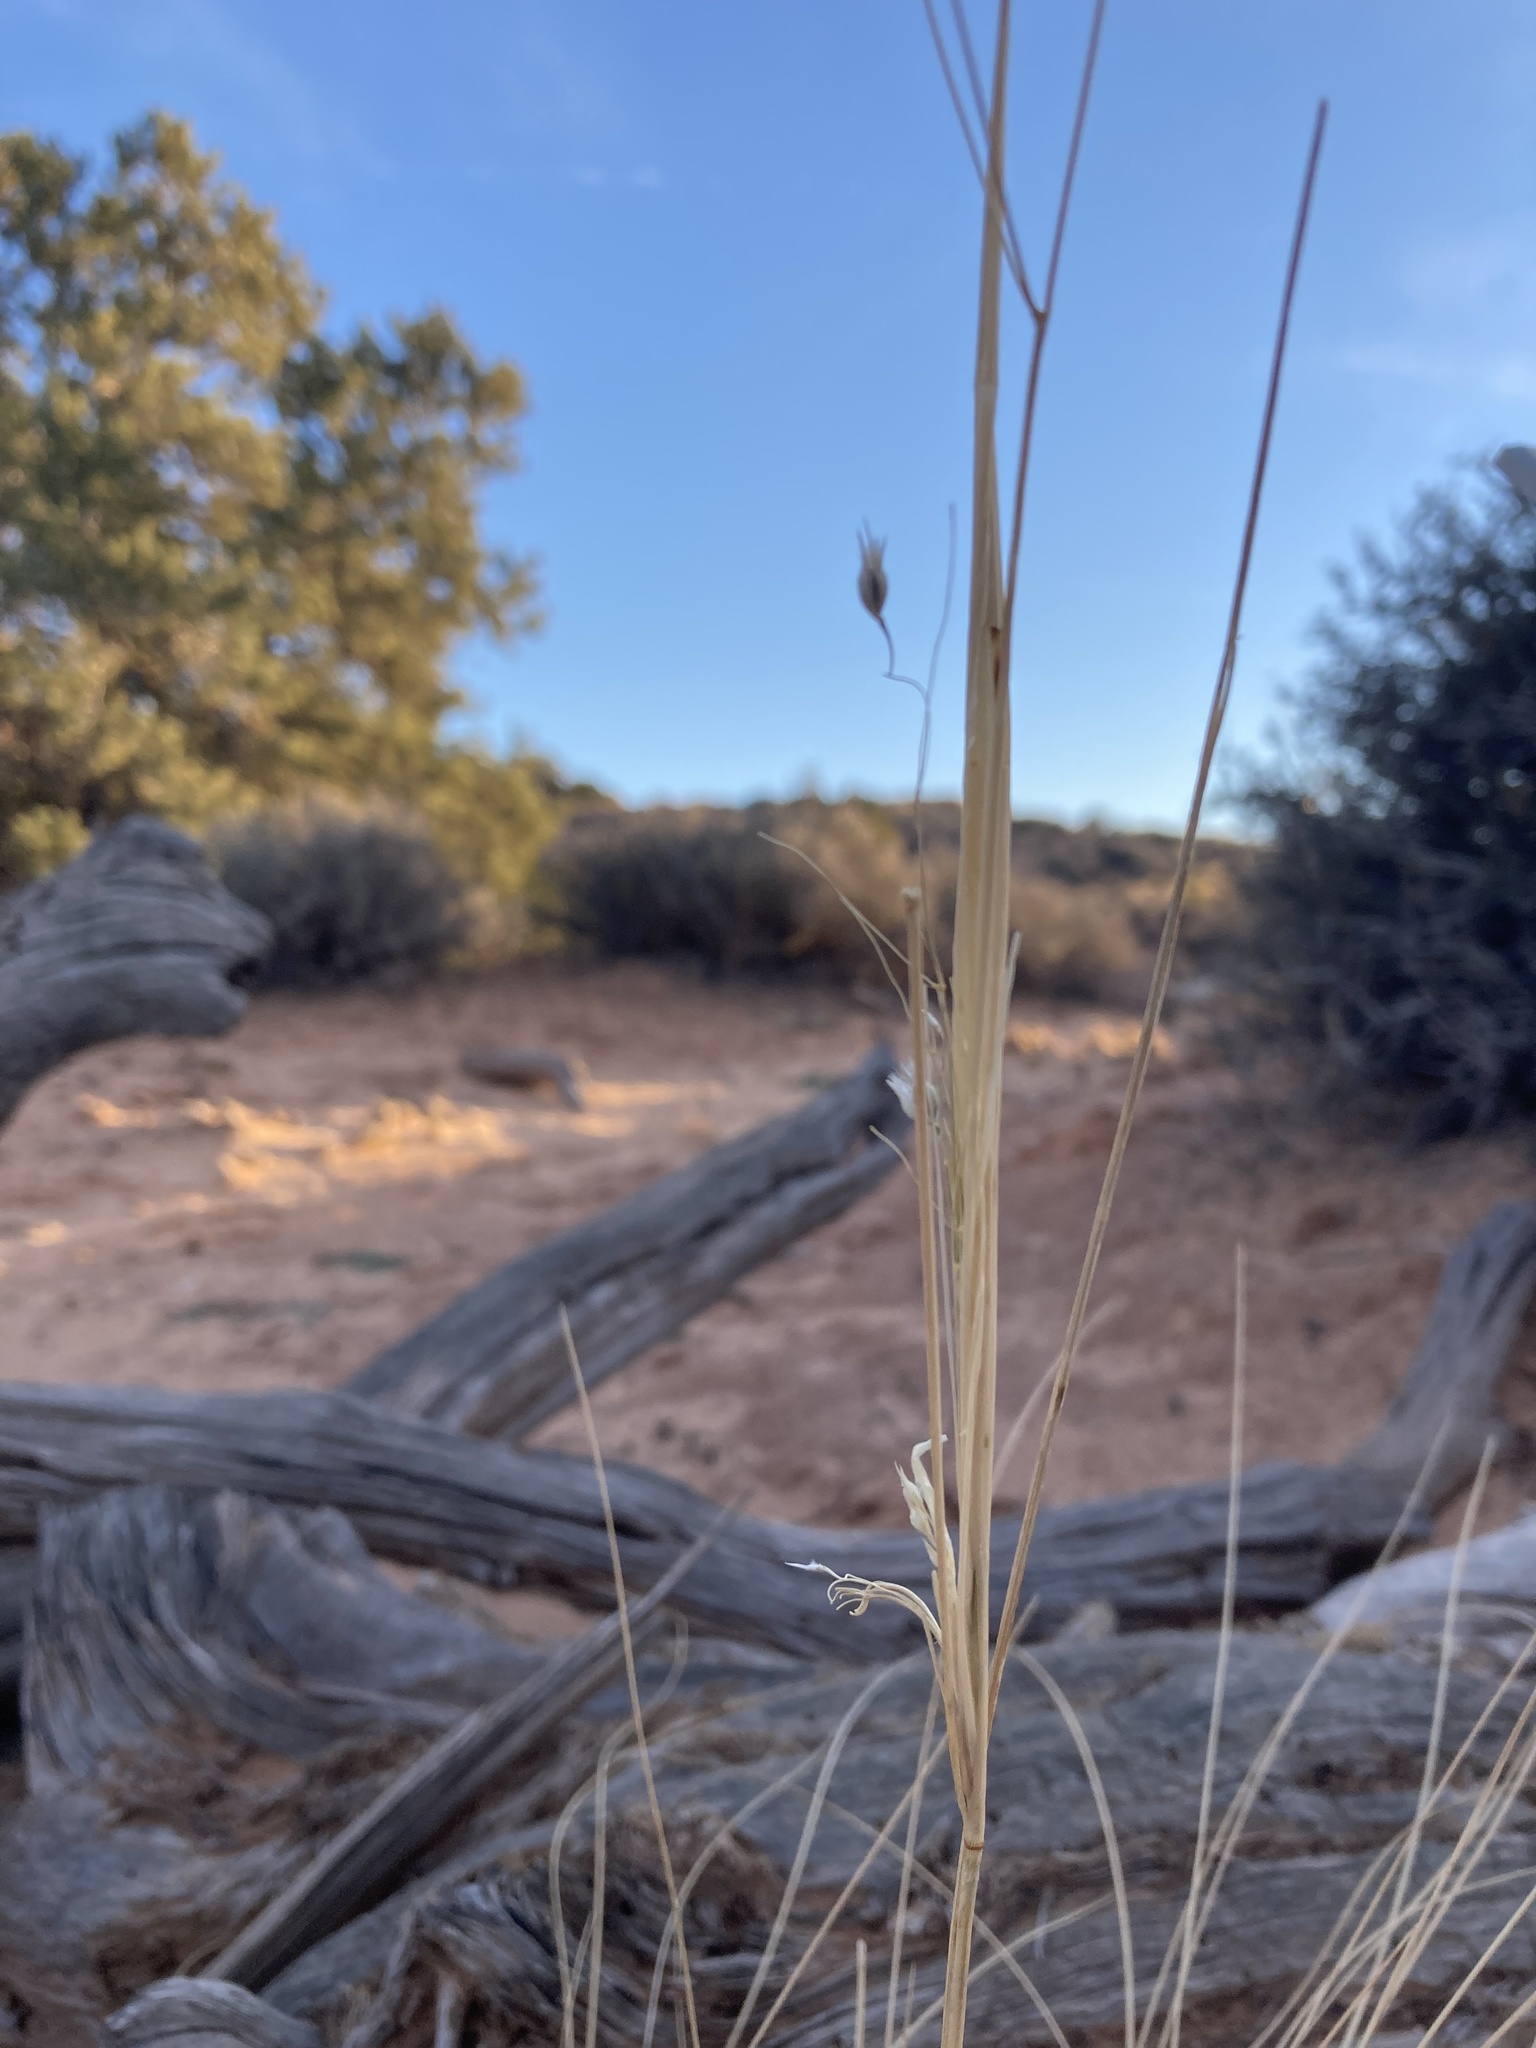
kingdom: Plantae
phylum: Tracheophyta
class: Liliopsida
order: Poales
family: Poaceae
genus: Eriocoma
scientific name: Eriocoma hymenoides
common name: Indian mountain ricegrass
